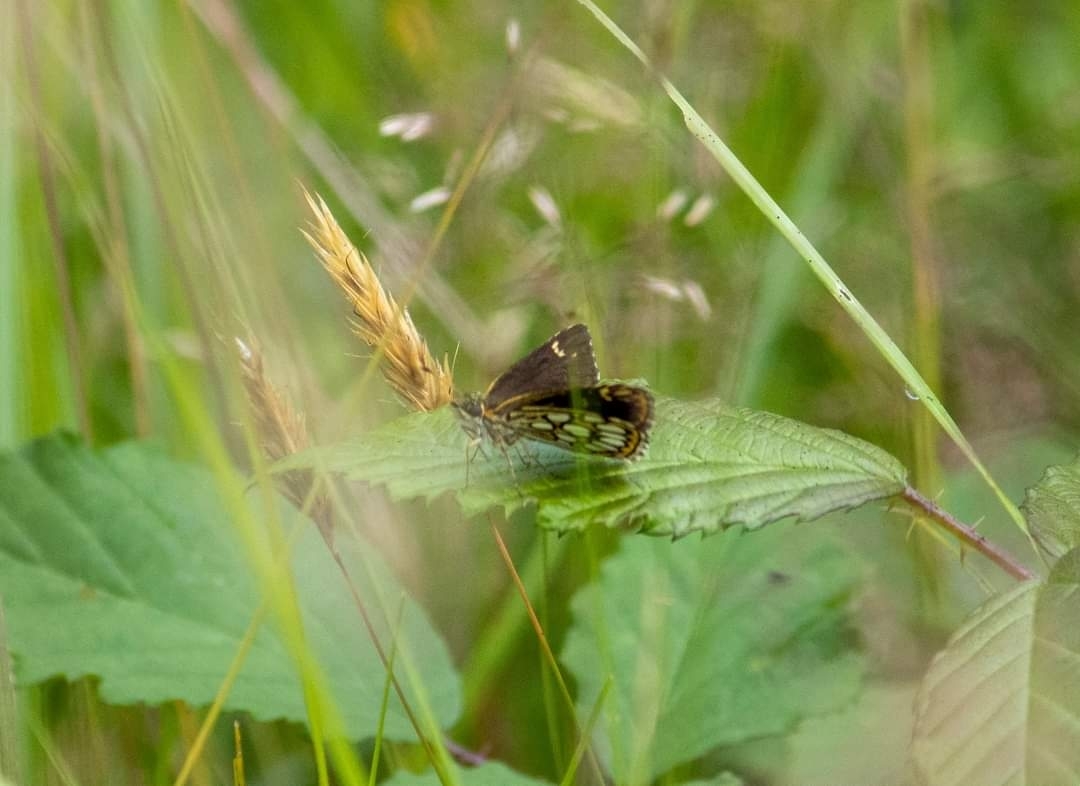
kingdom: Animalia
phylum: Arthropoda
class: Insecta
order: Lepidoptera
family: Hesperiidae
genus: Heteropterus
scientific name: Heteropterus morpheus
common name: Large chequered skipper
